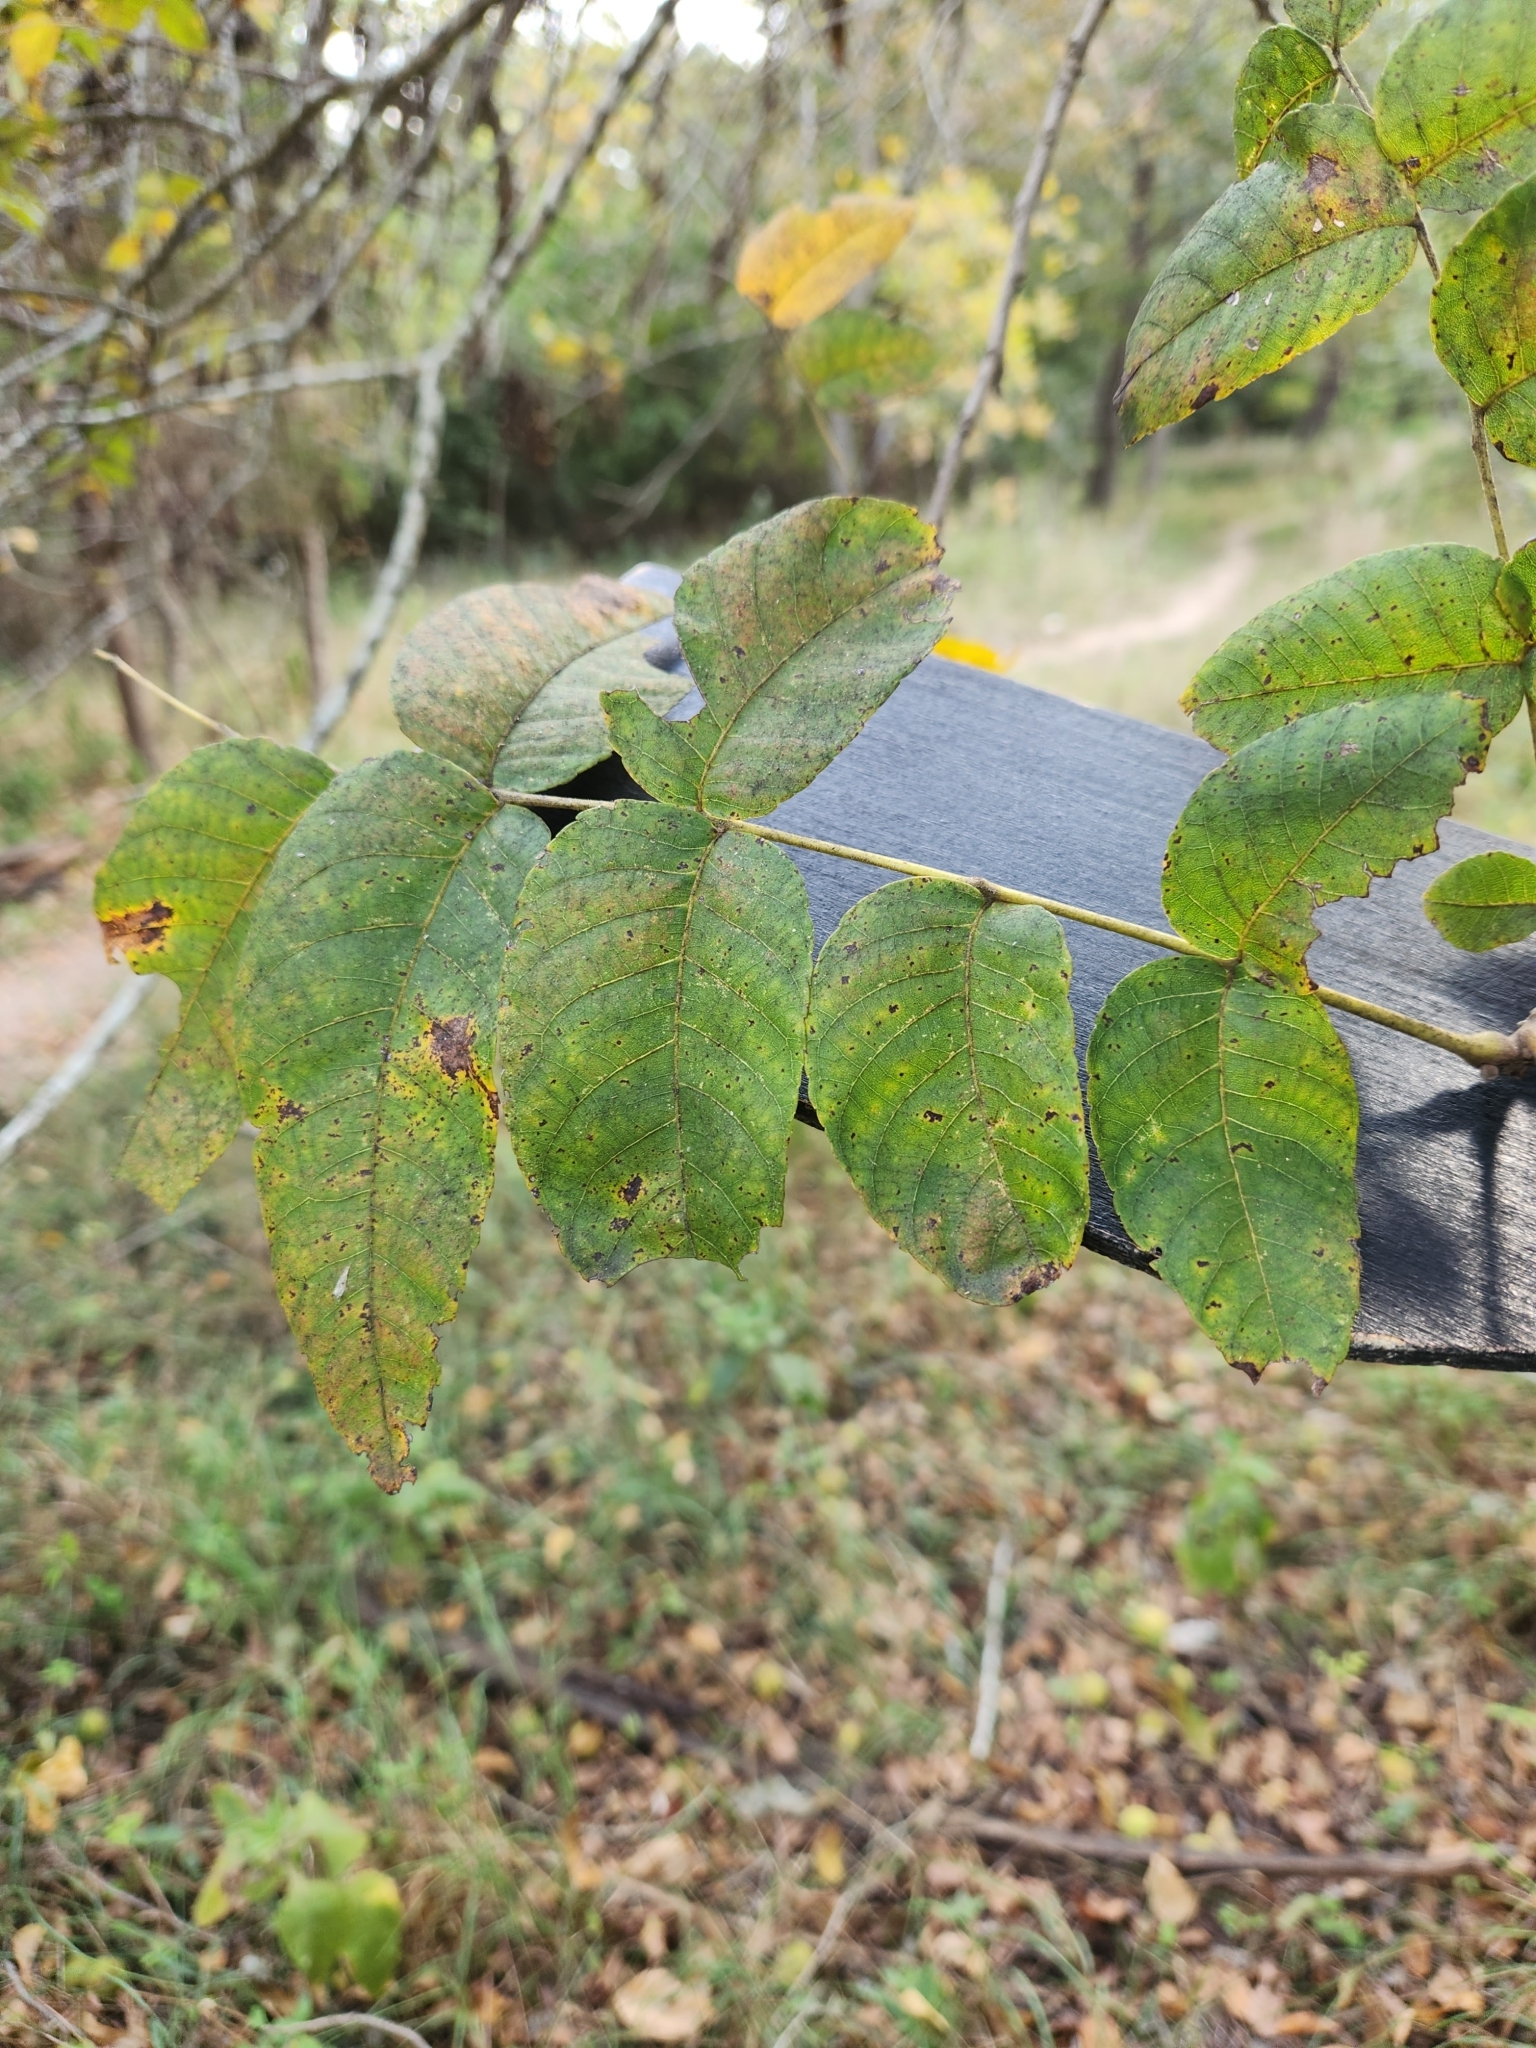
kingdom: Plantae
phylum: Tracheophyta
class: Magnoliopsida
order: Fagales
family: Juglandaceae
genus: Juglans
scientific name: Juglans nigra
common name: Black walnut
